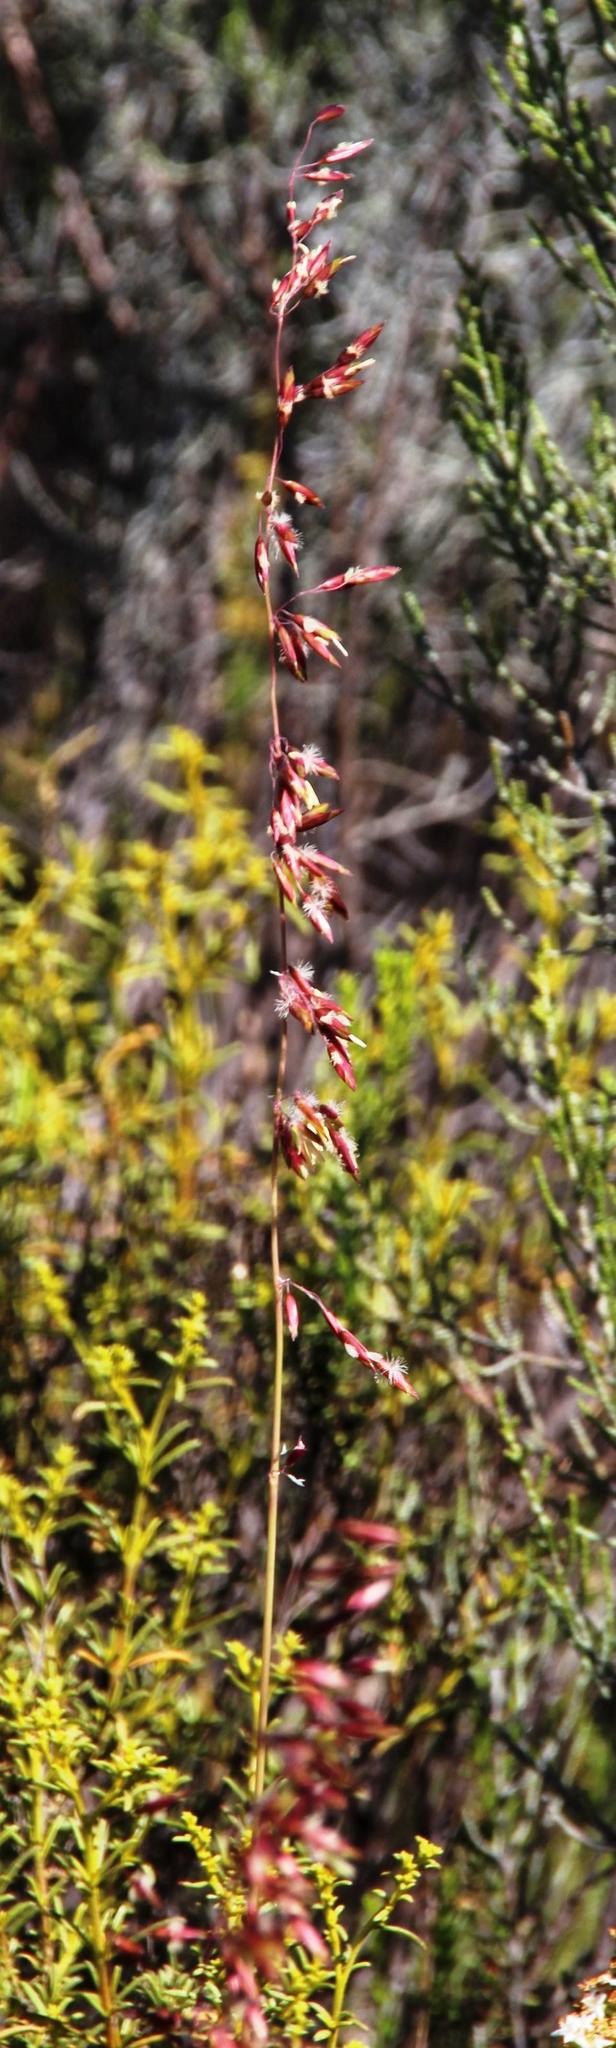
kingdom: Plantae
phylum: Tracheophyta
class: Liliopsida
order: Poales
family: Poaceae
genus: Ehrharta
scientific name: Ehrharta calycina
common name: Perennial veldtgrass
